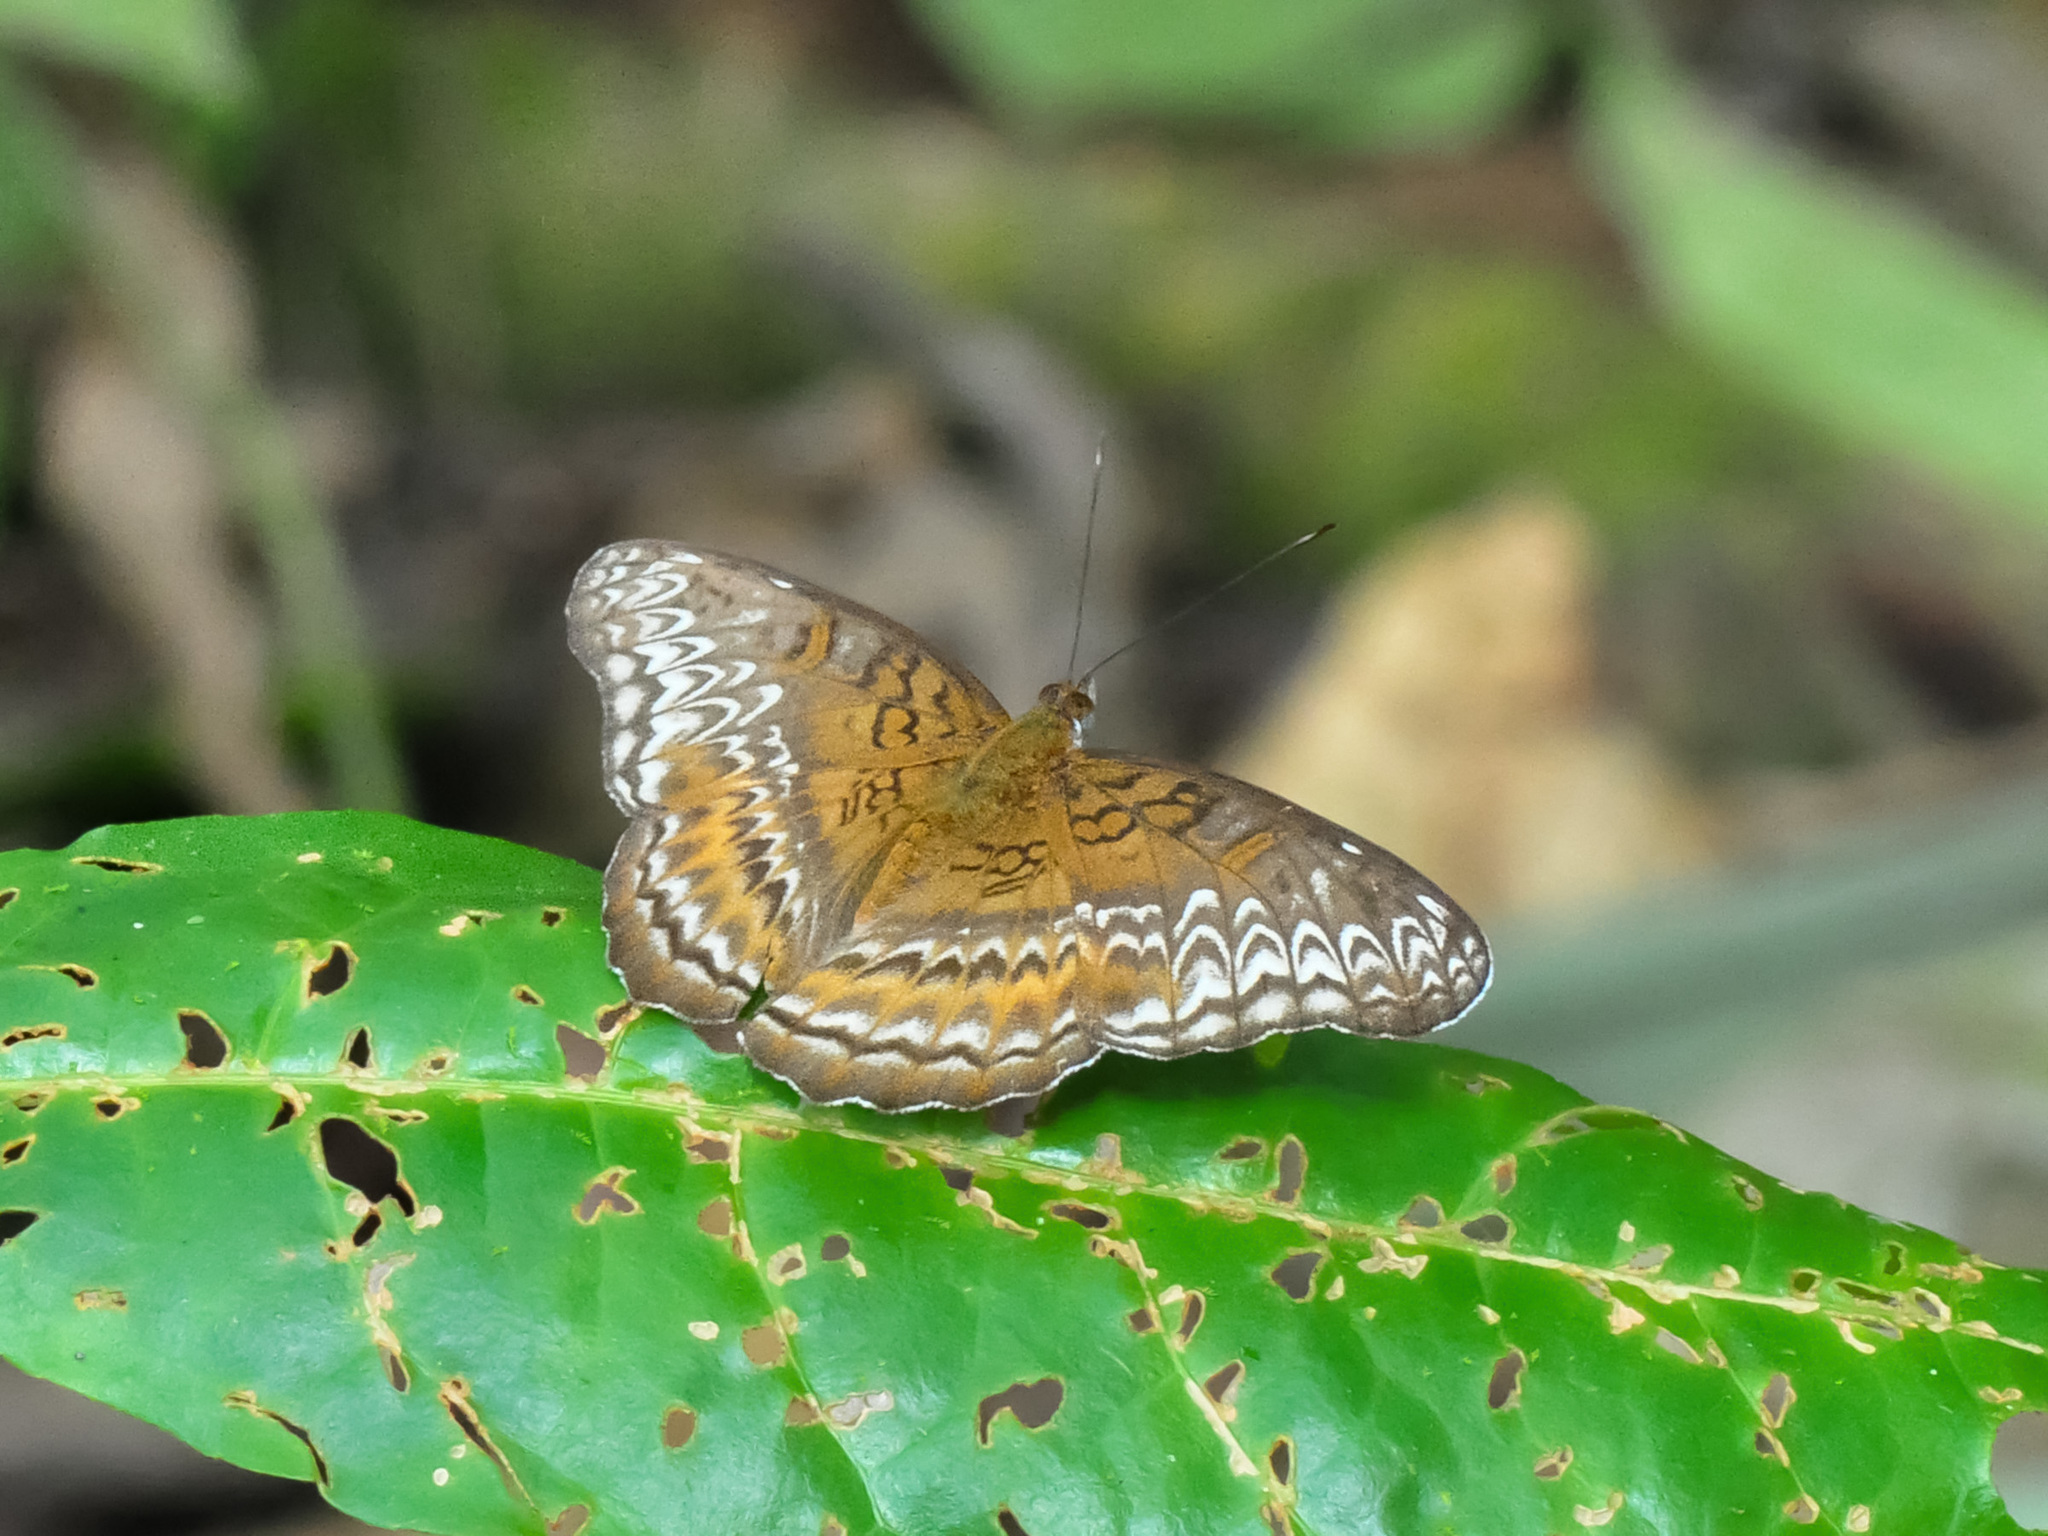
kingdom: Animalia
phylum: Arthropoda
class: Insecta
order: Lepidoptera
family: Nymphalidae
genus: Lebadea
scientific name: Lebadea martha
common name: Knight
